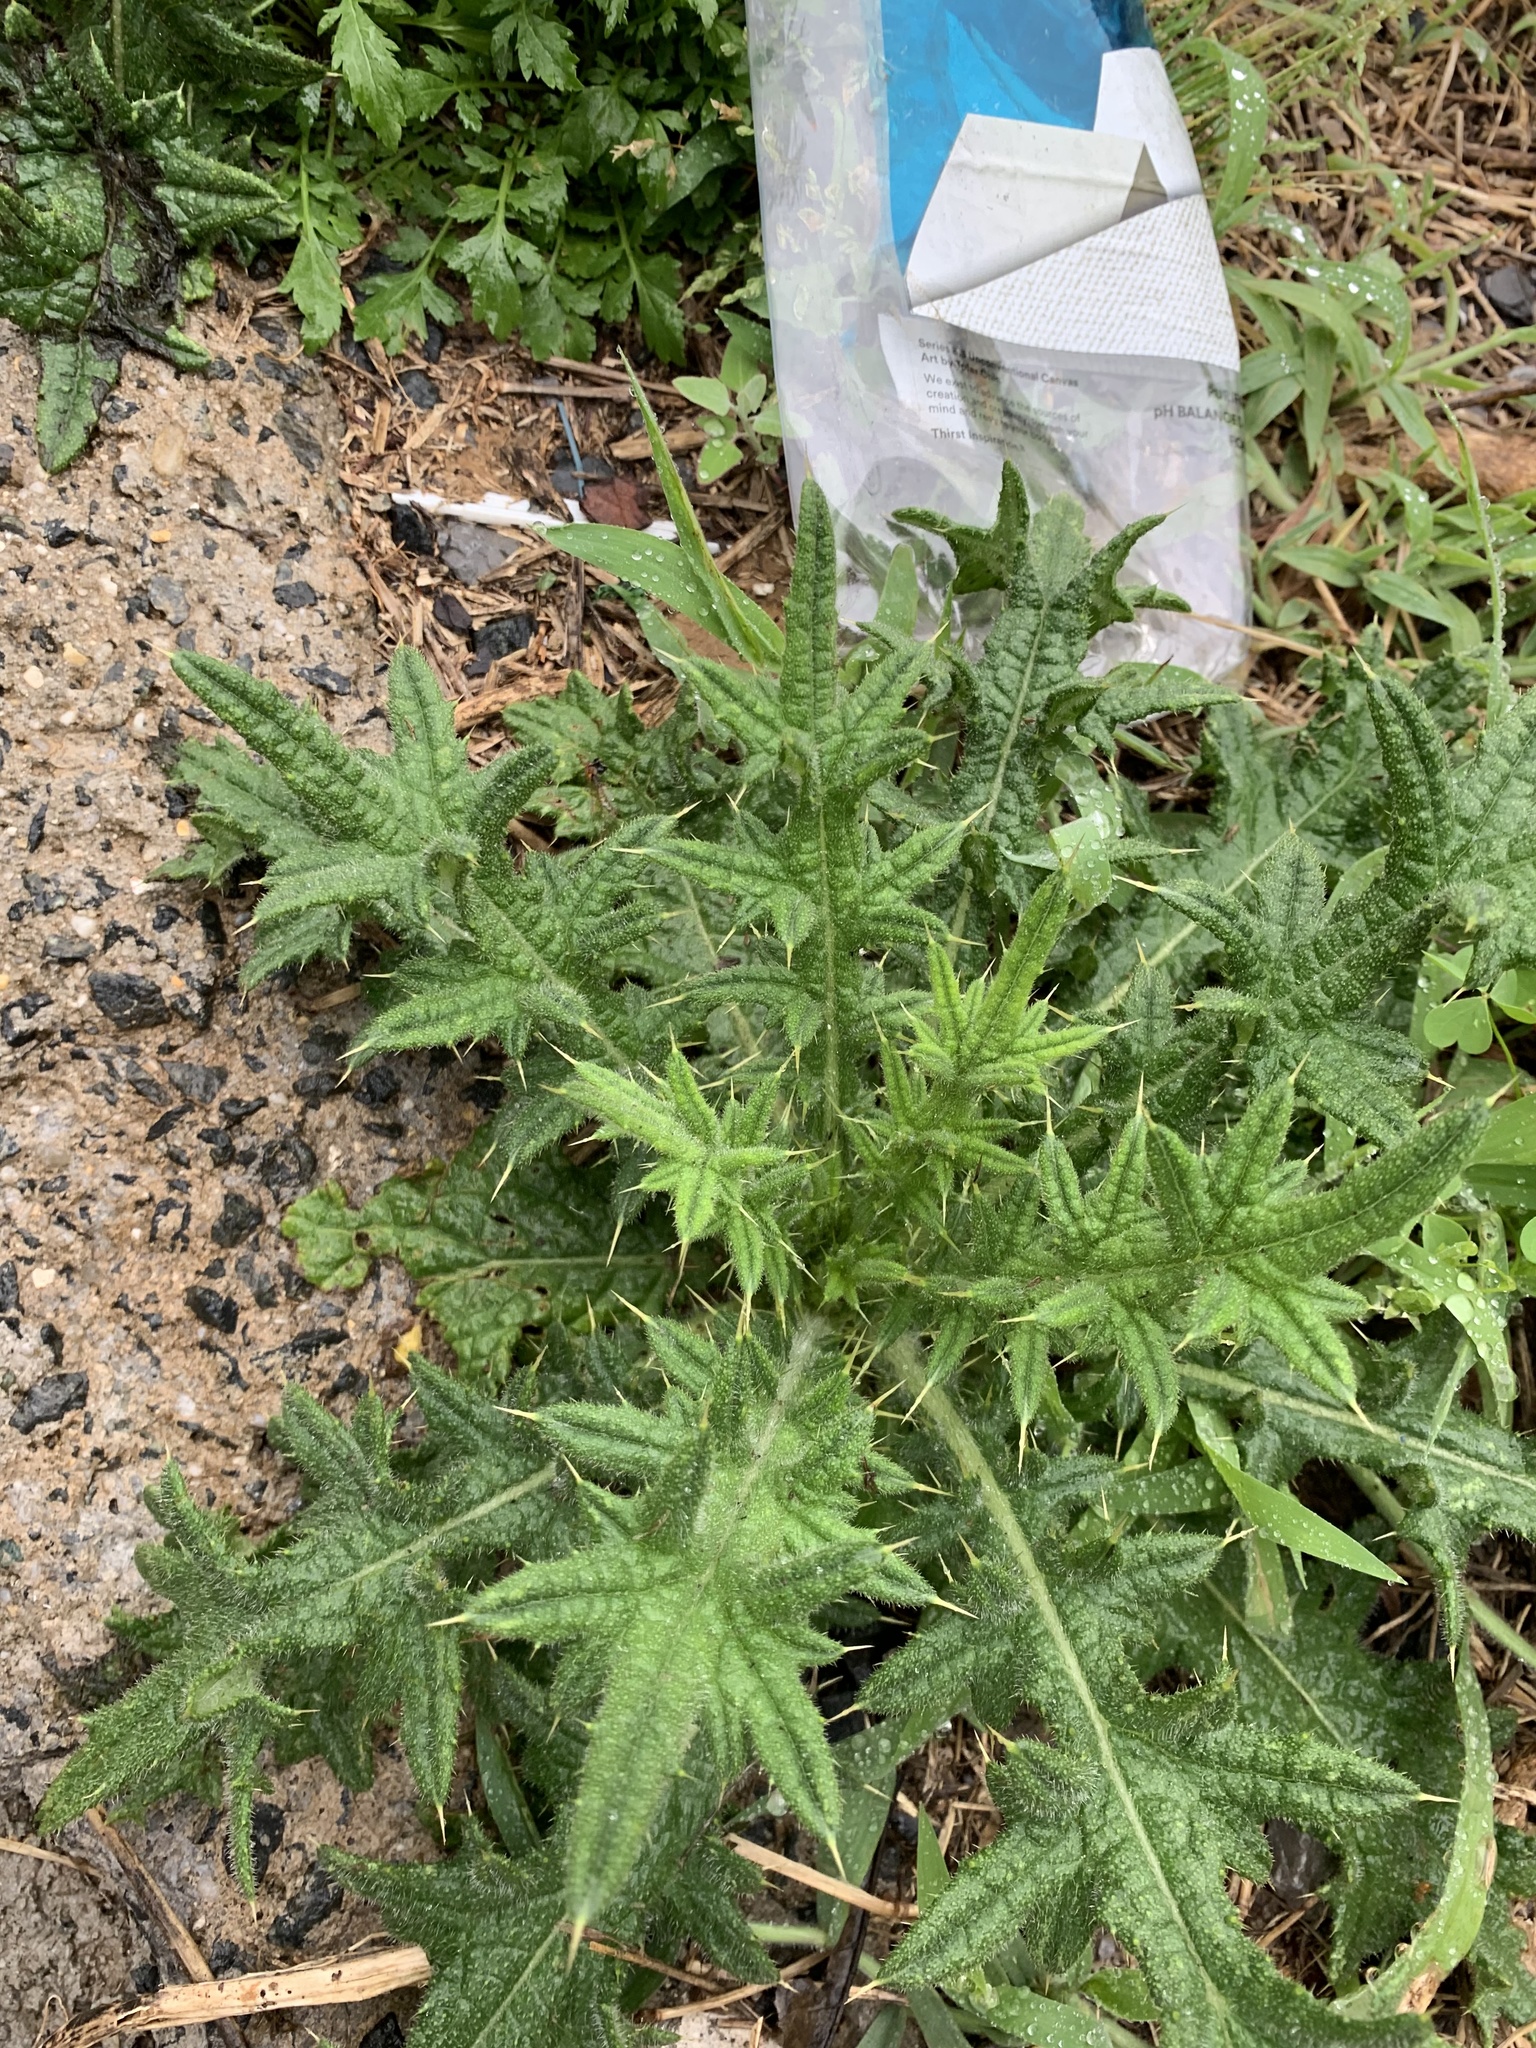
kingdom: Plantae
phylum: Tracheophyta
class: Magnoliopsida
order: Asterales
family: Asteraceae
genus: Cirsium
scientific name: Cirsium vulgare
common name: Bull thistle
